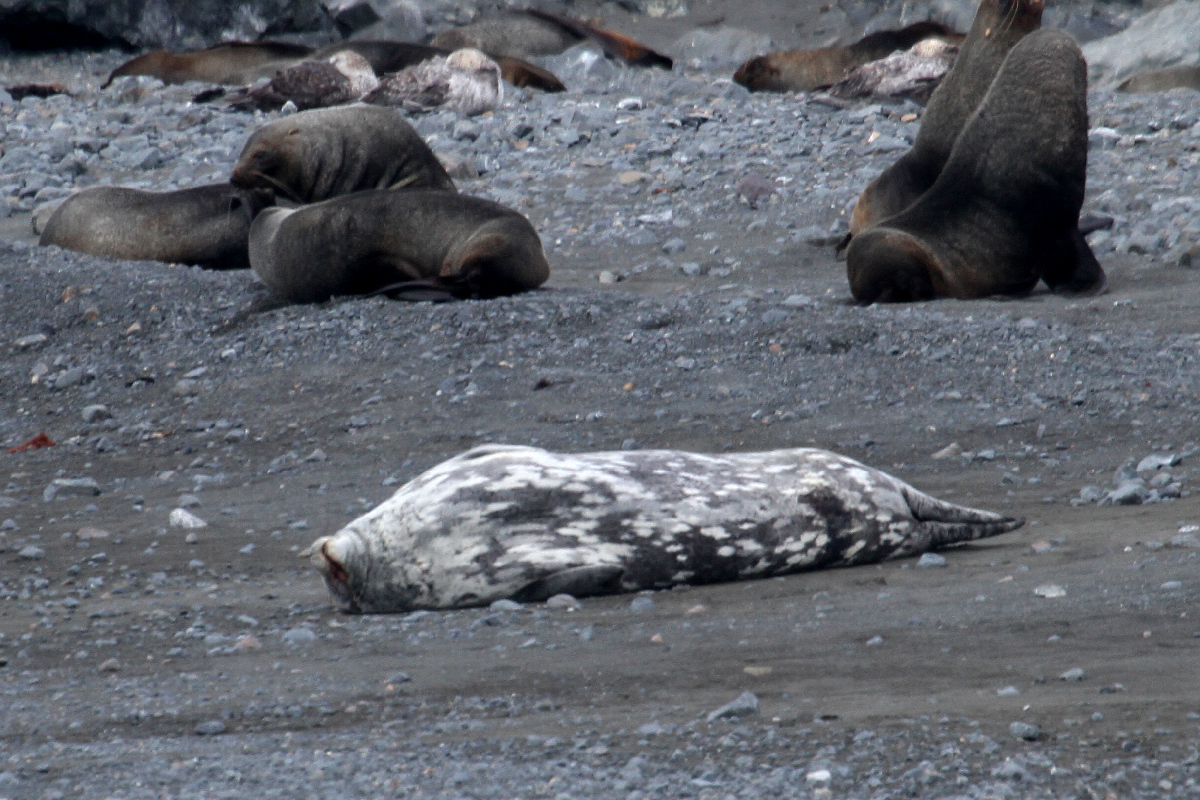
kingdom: Animalia
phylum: Chordata
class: Mammalia
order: Carnivora
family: Phocidae
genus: Leptonychotes
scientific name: Leptonychotes weddellii
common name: Weddell seal
